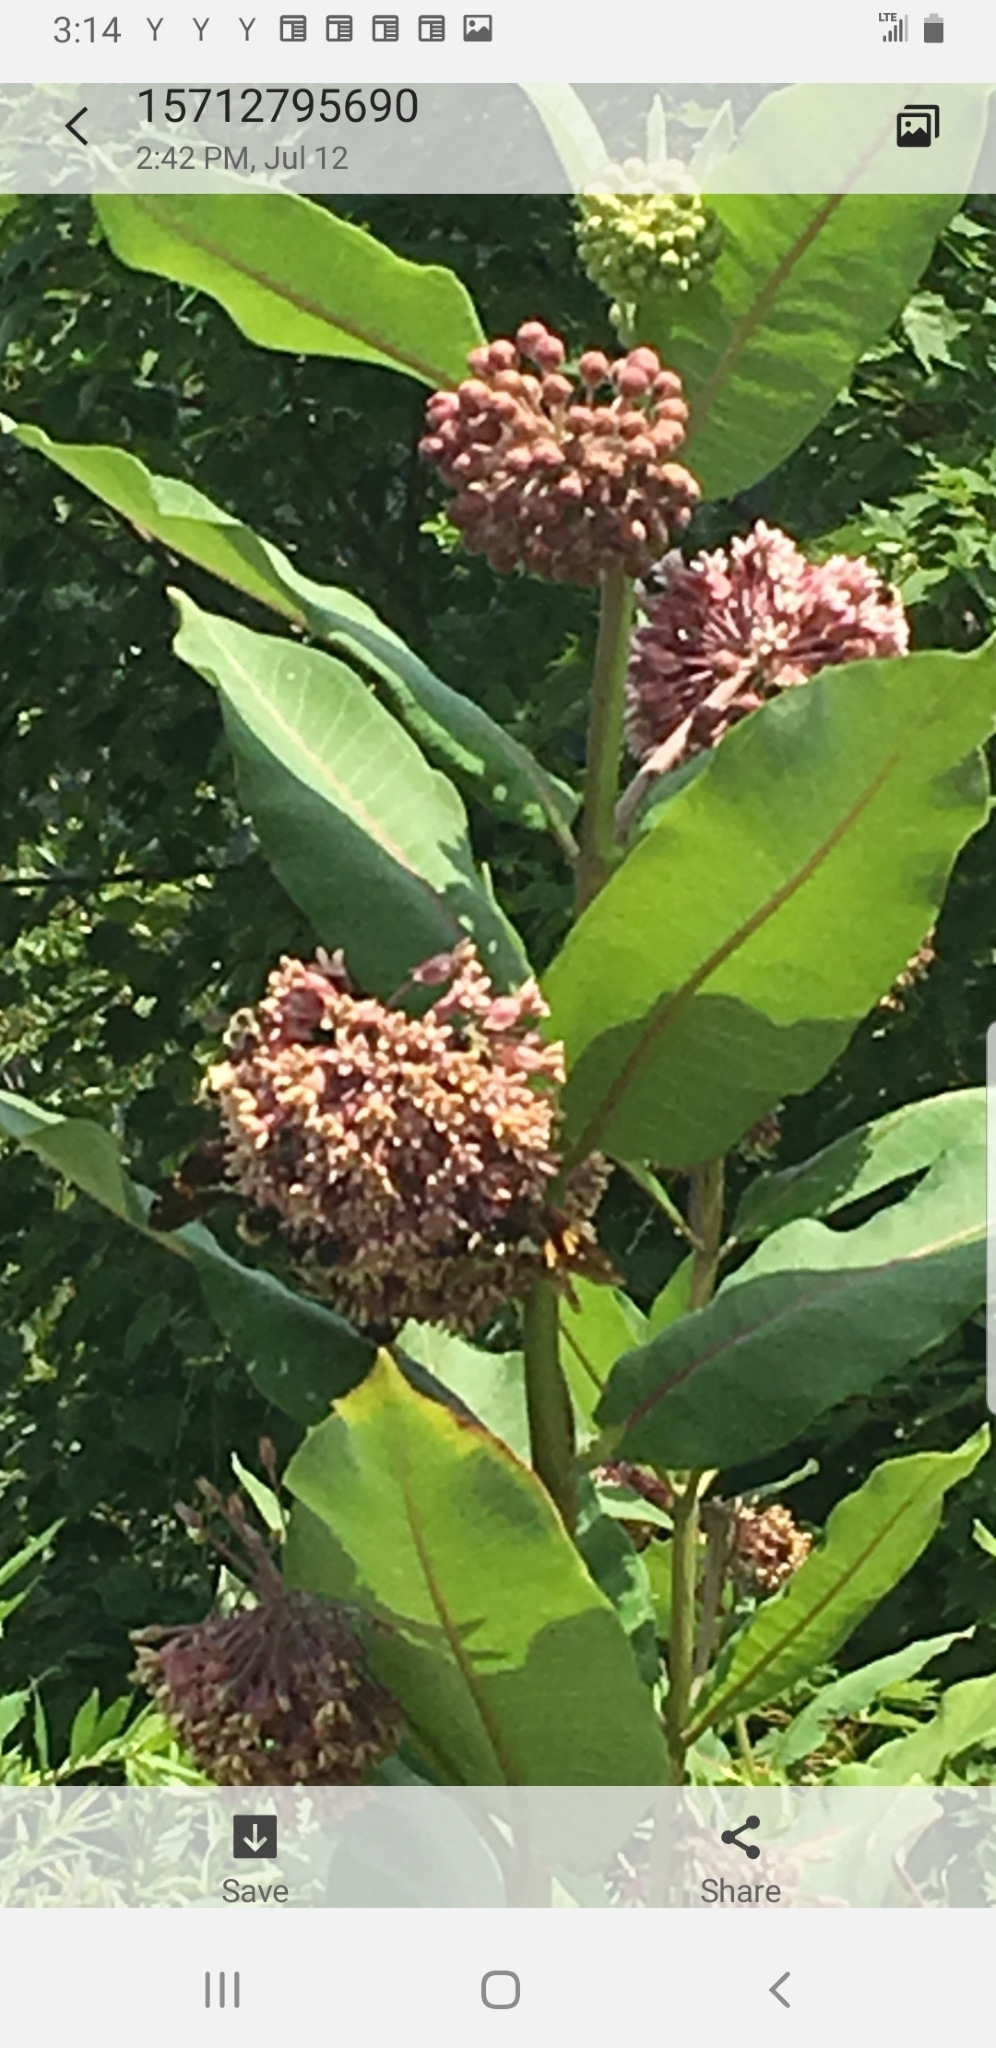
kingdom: Plantae
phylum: Tracheophyta
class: Magnoliopsida
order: Gentianales
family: Apocynaceae
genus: Asclepias
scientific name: Asclepias syriaca
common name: Common milkweed
